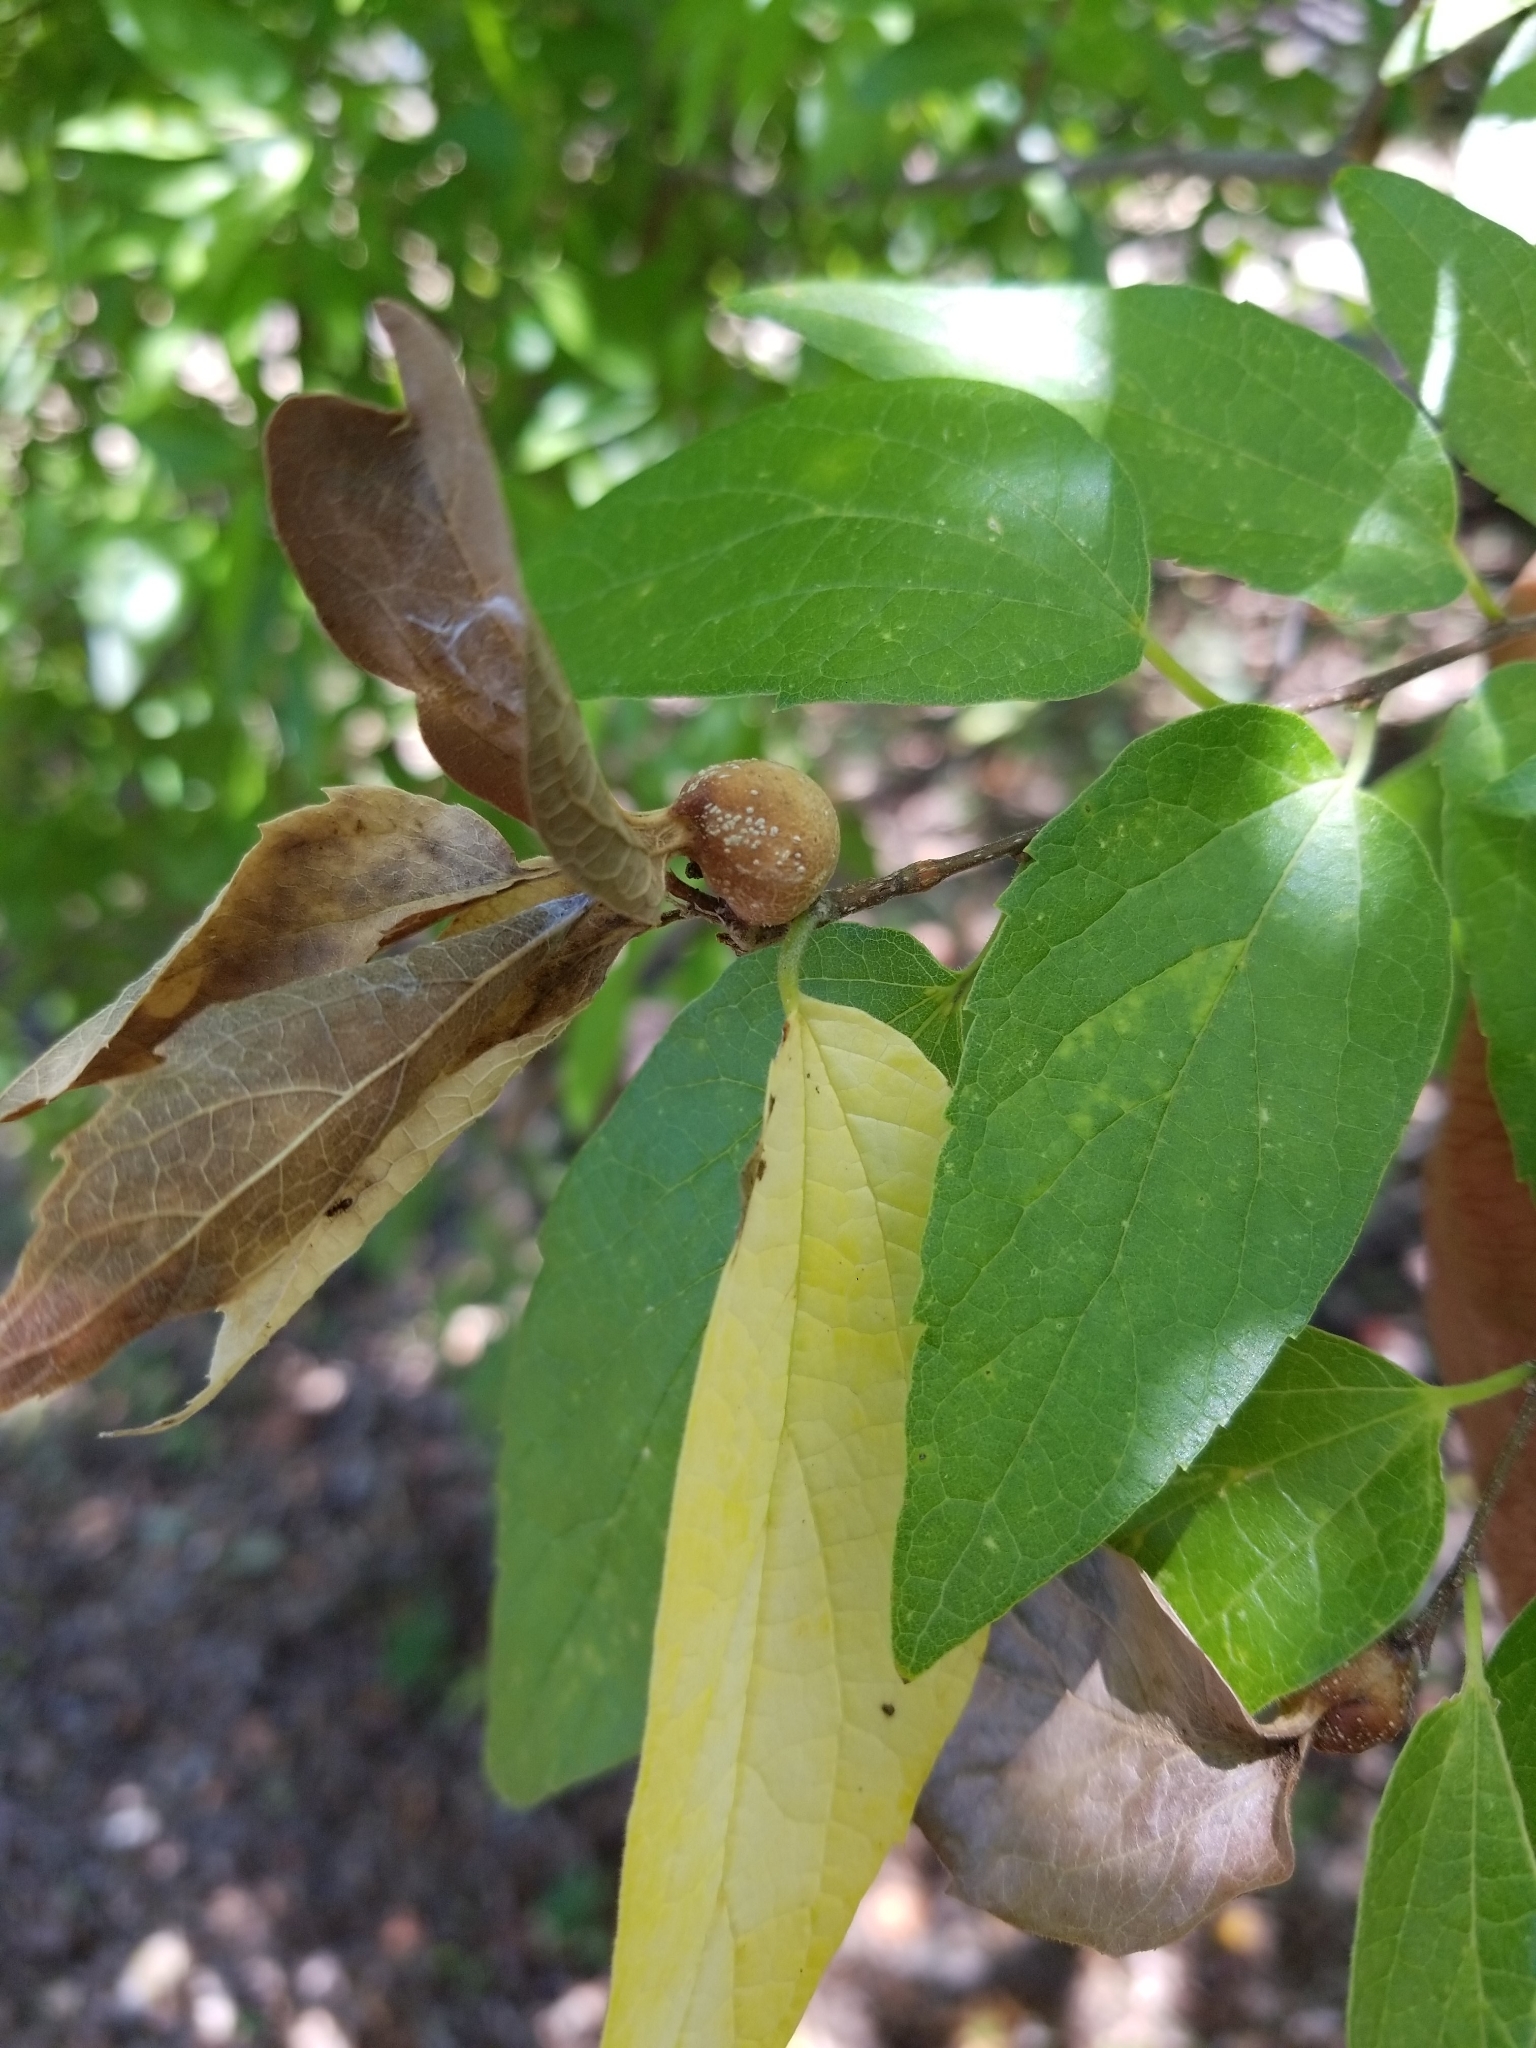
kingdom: Animalia
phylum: Arthropoda
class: Insecta
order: Hemiptera
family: Aphalaridae
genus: Pachypsylla
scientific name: Pachypsylla venusta
